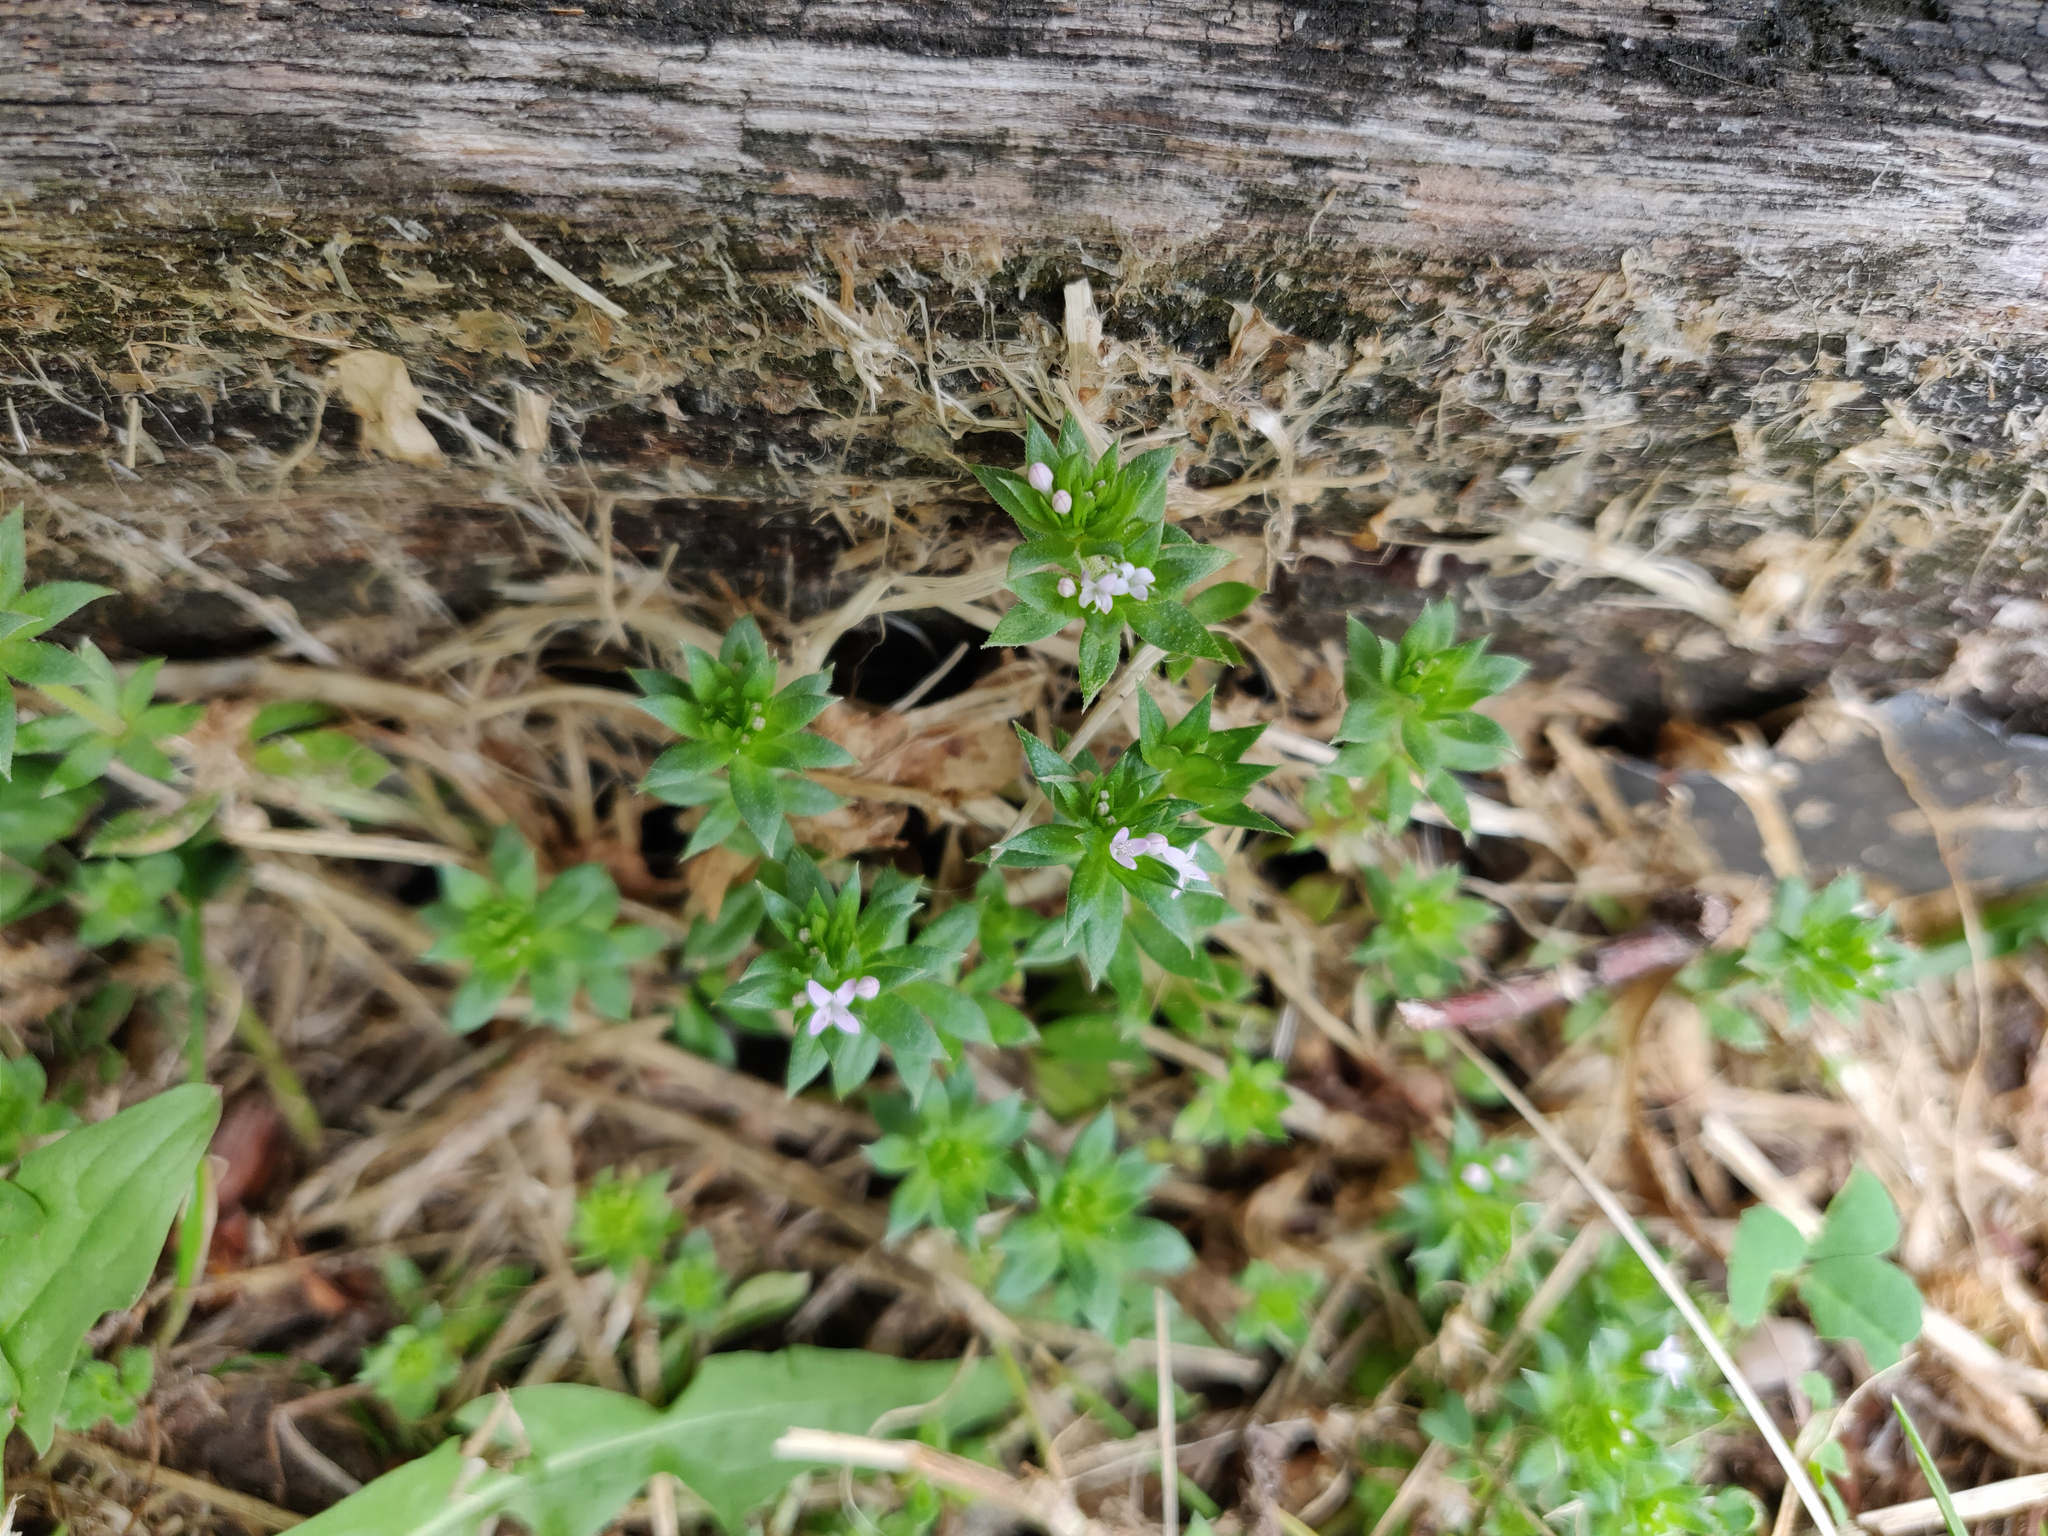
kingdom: Plantae
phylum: Tracheophyta
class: Magnoliopsida
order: Gentianales
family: Rubiaceae
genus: Sherardia
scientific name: Sherardia arvensis
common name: Field madder
